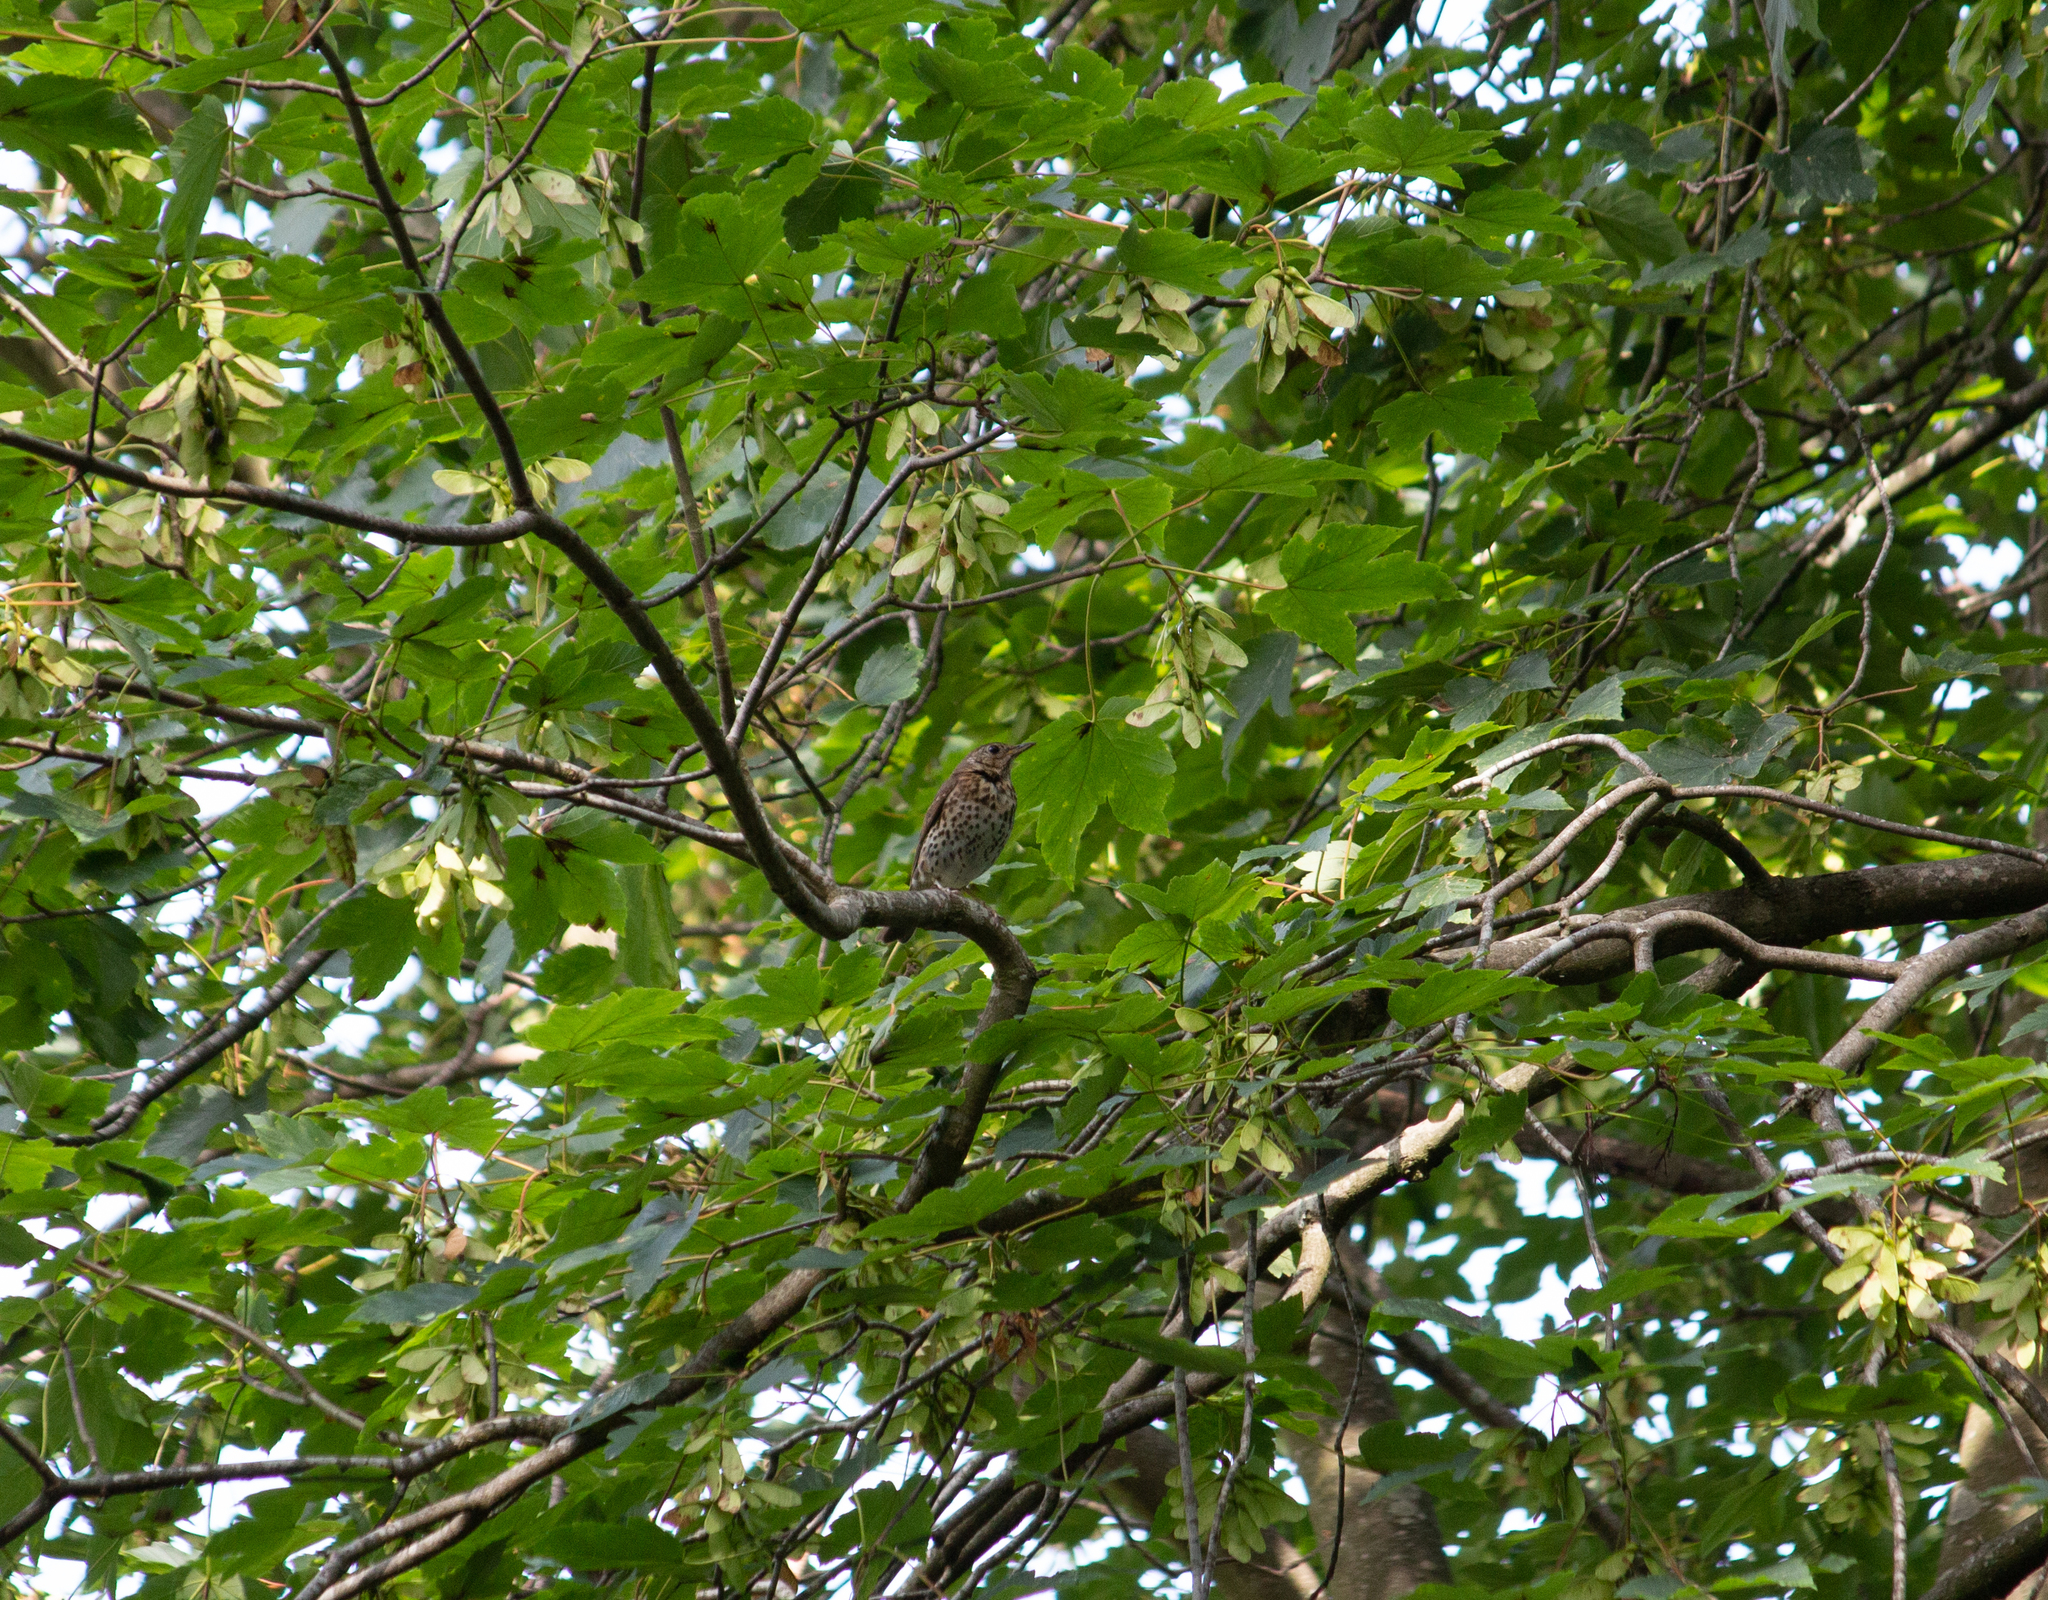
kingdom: Animalia
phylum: Chordata
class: Aves
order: Passeriformes
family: Turdidae
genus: Turdus
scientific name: Turdus philomelos
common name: Song thrush
